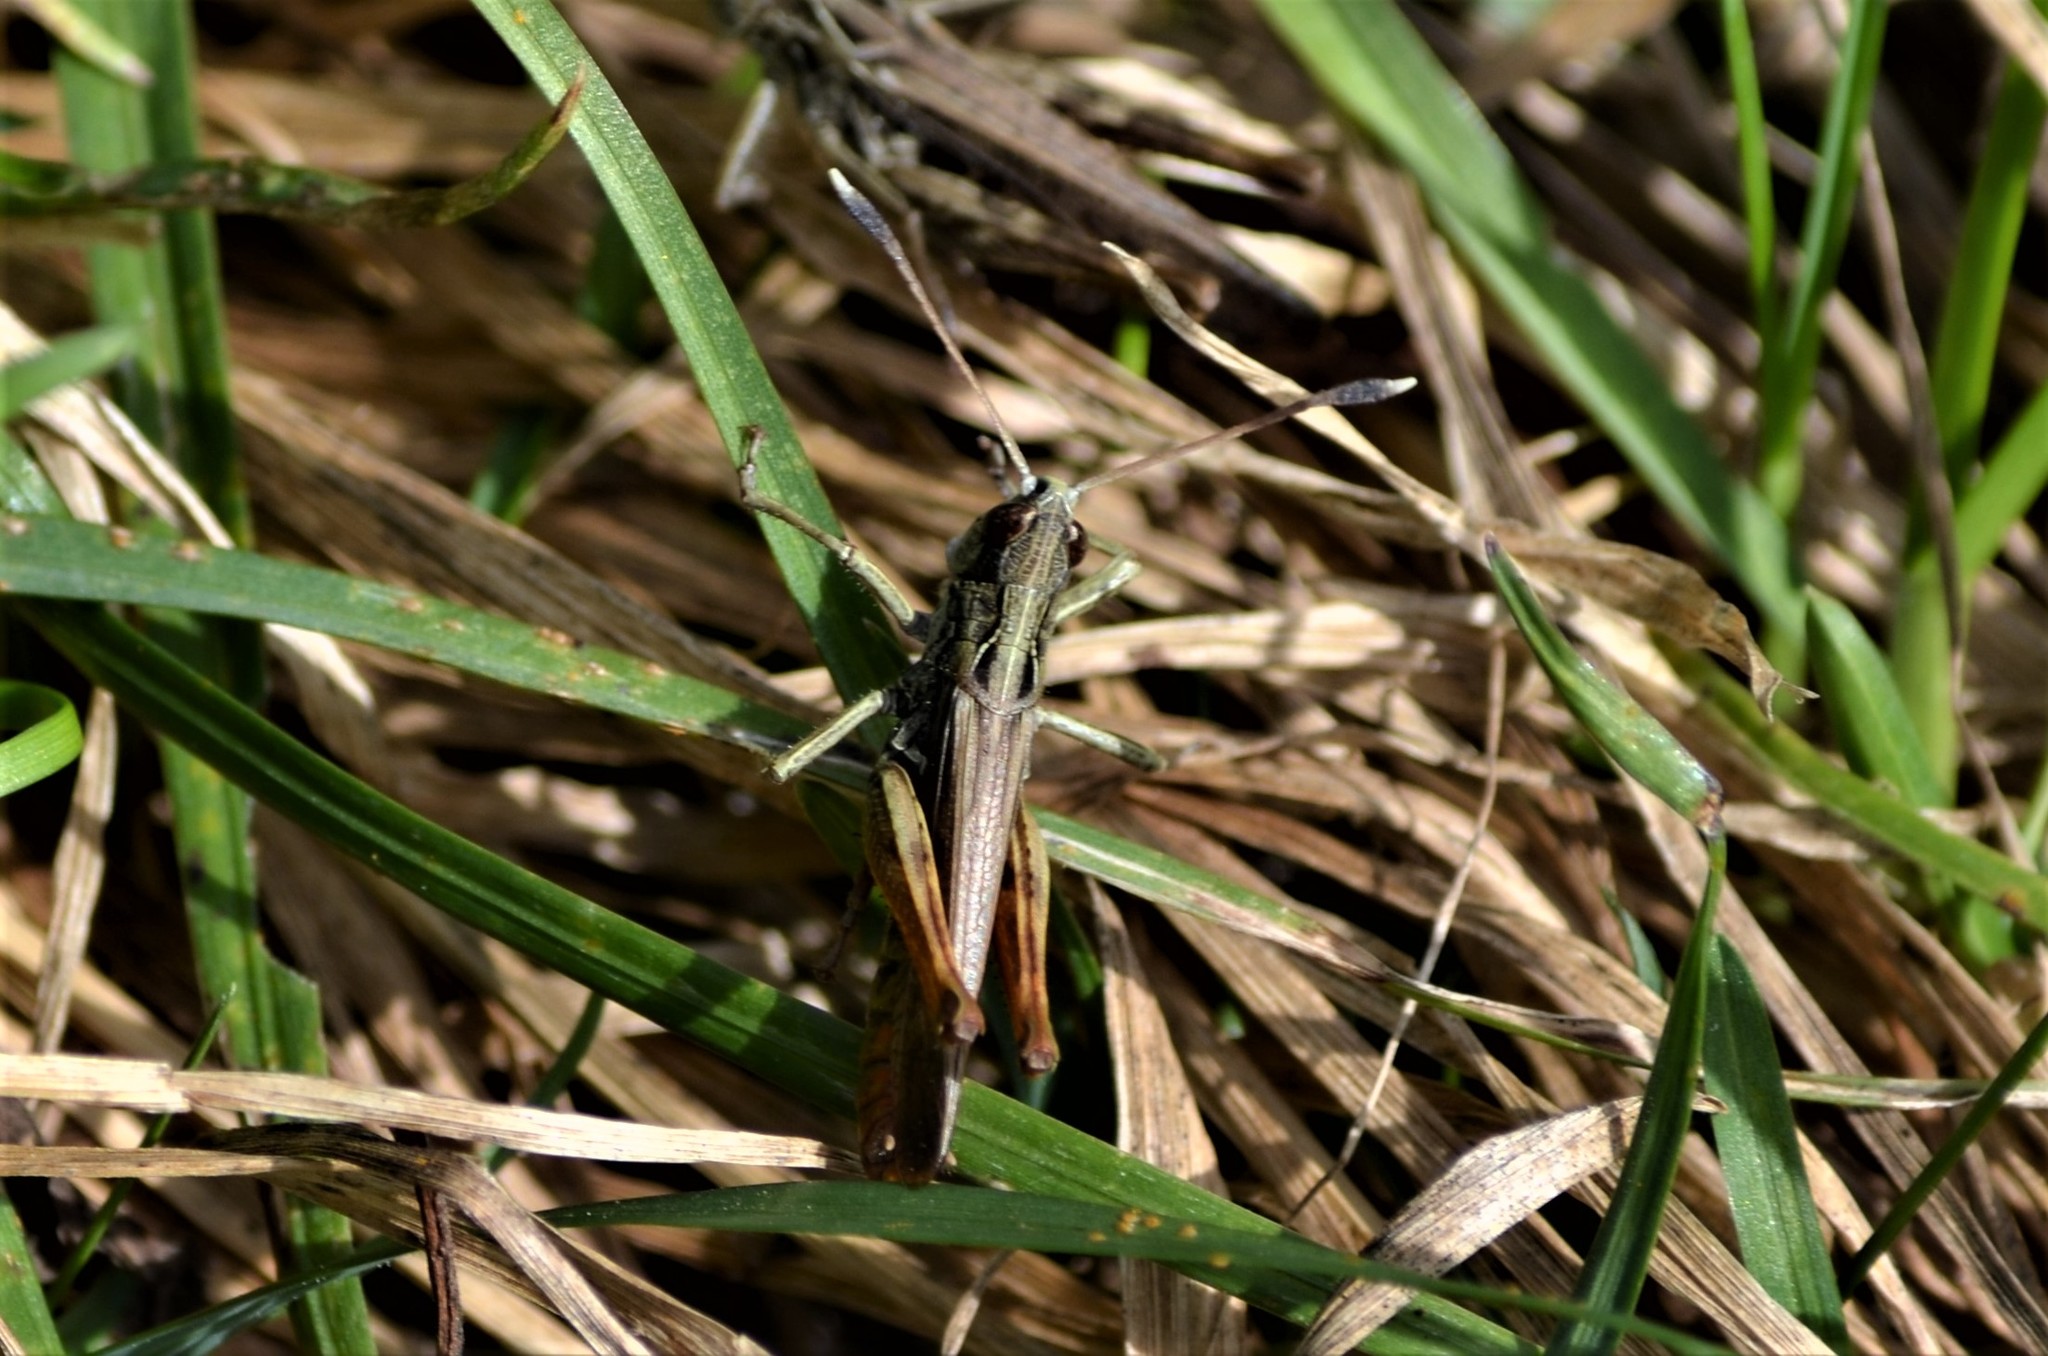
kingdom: Animalia
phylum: Arthropoda
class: Insecta
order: Orthoptera
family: Acrididae
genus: Gomphocerippus
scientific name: Gomphocerippus rufus
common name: Rufous grasshopper
